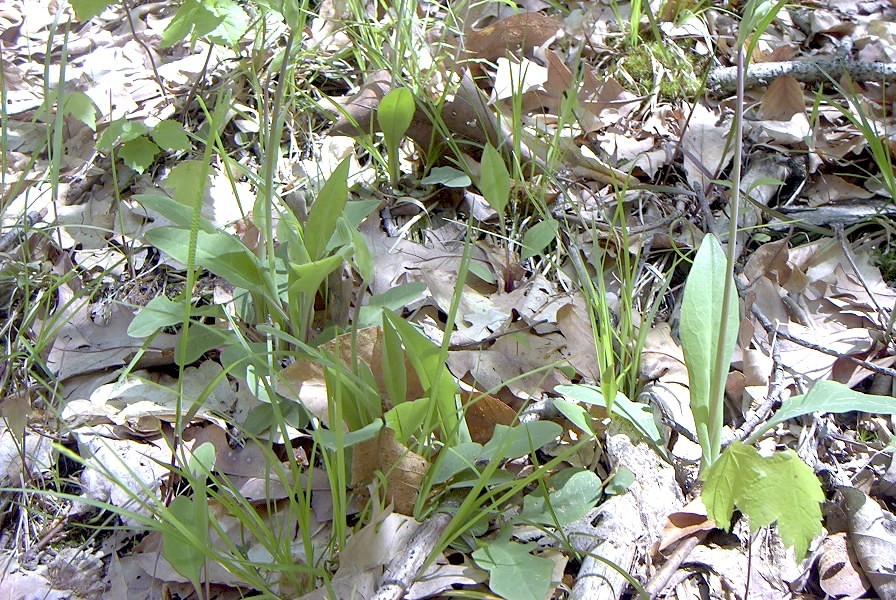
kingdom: Plantae
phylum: Tracheophyta
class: Magnoliopsida
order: Asterales
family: Asteraceae
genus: Krigia
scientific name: Krigia biflora
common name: Orange dwarf-dandelion
